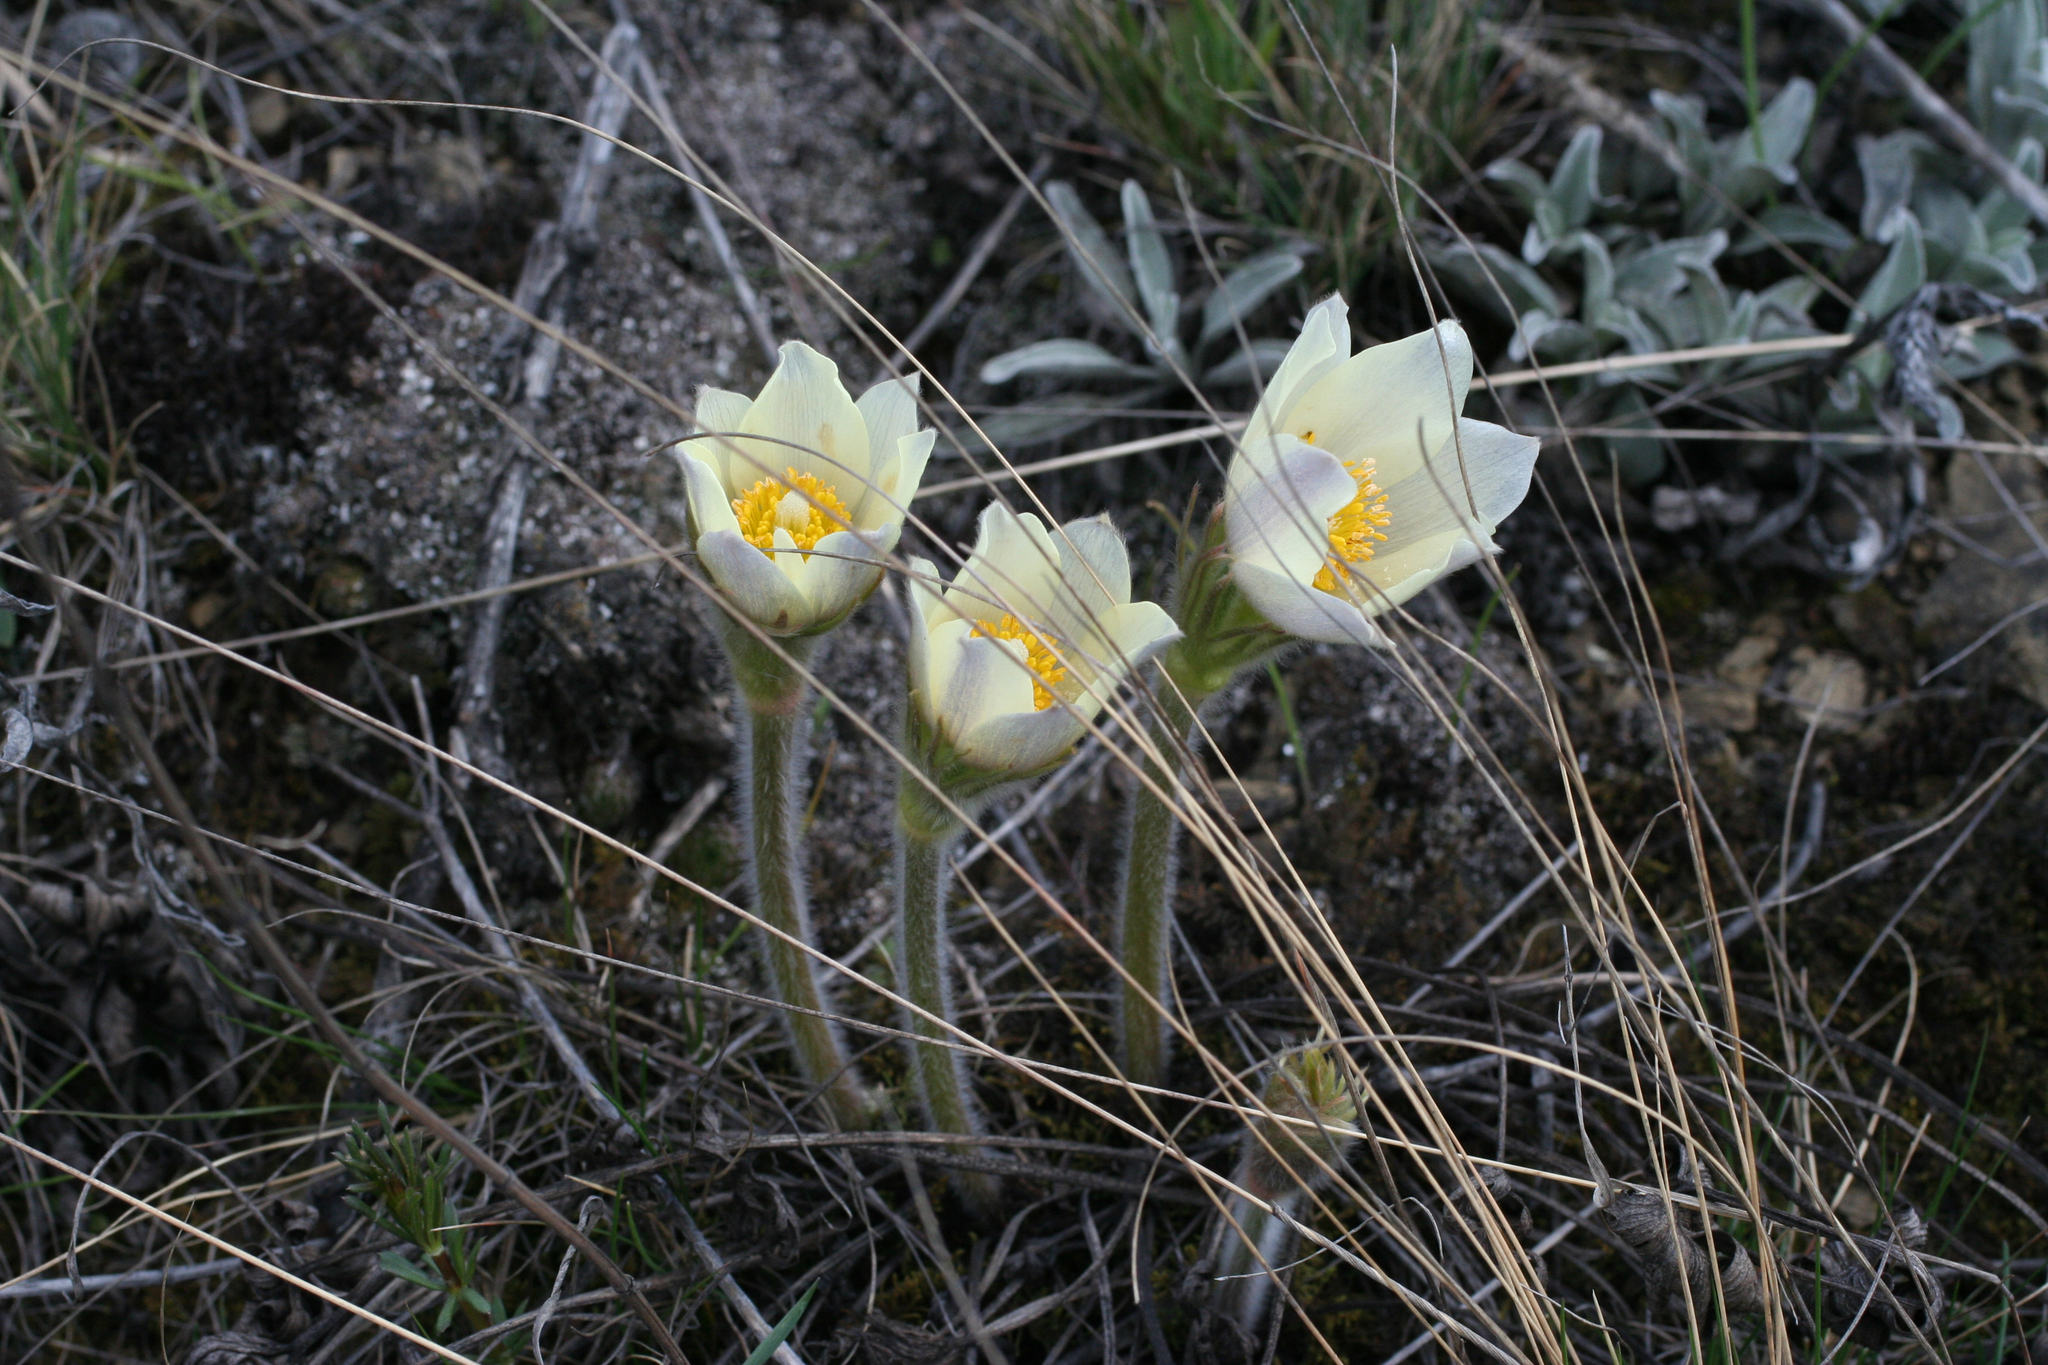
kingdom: Plantae
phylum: Tracheophyta
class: Magnoliopsida
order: Ranunculales
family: Ranunculaceae
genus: Pulsatilla
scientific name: Pulsatilla patens
